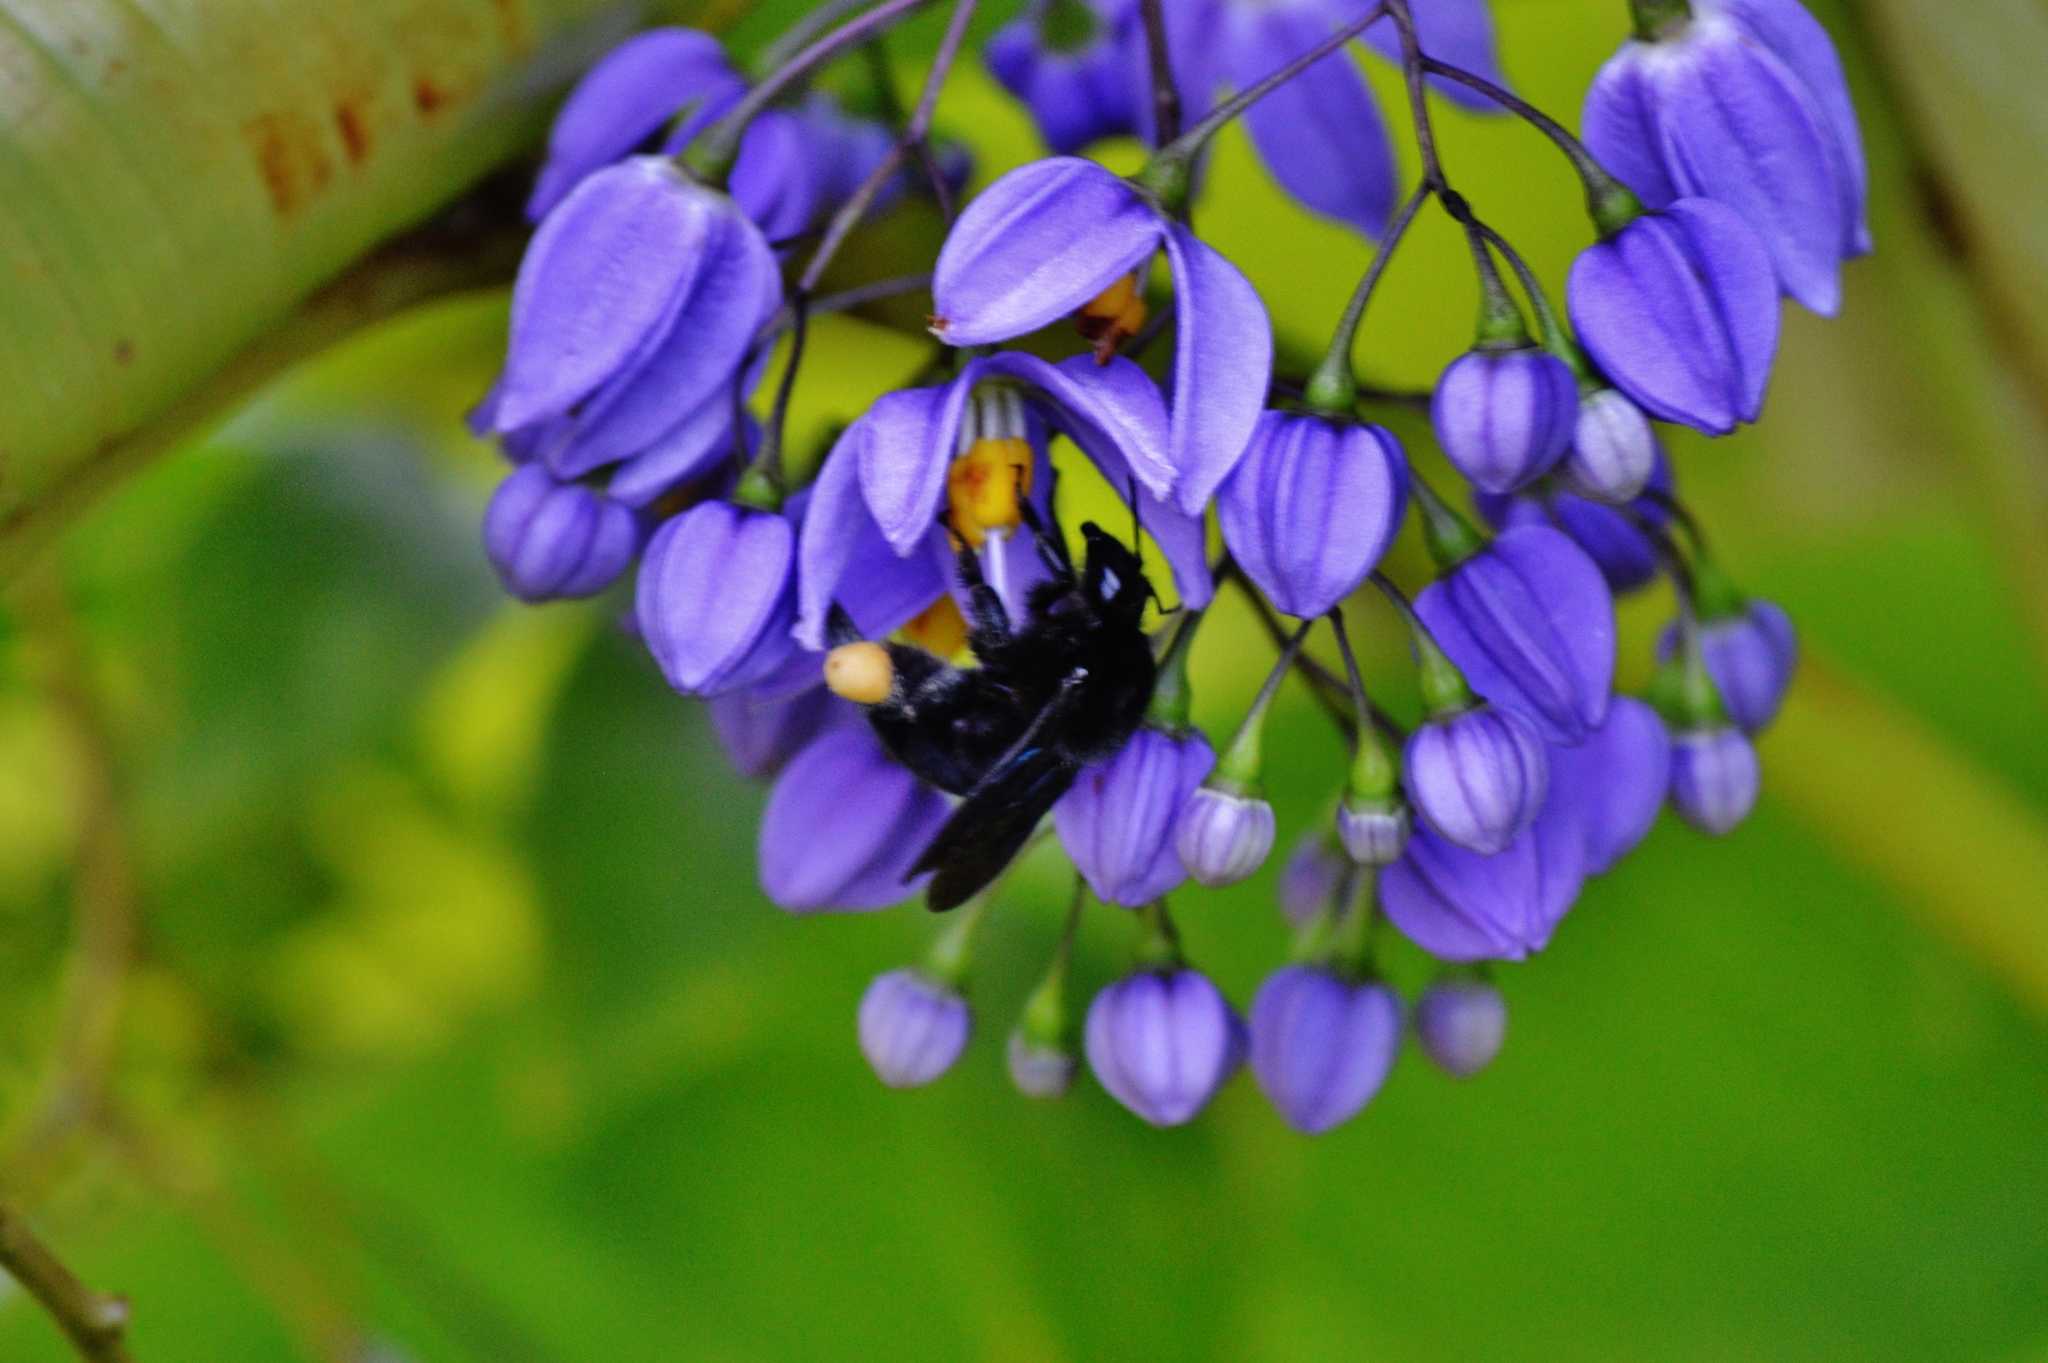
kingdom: Animalia
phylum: Arthropoda
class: Insecta
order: Hymenoptera
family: Apidae
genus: Eulaema
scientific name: Eulaema nigrita
